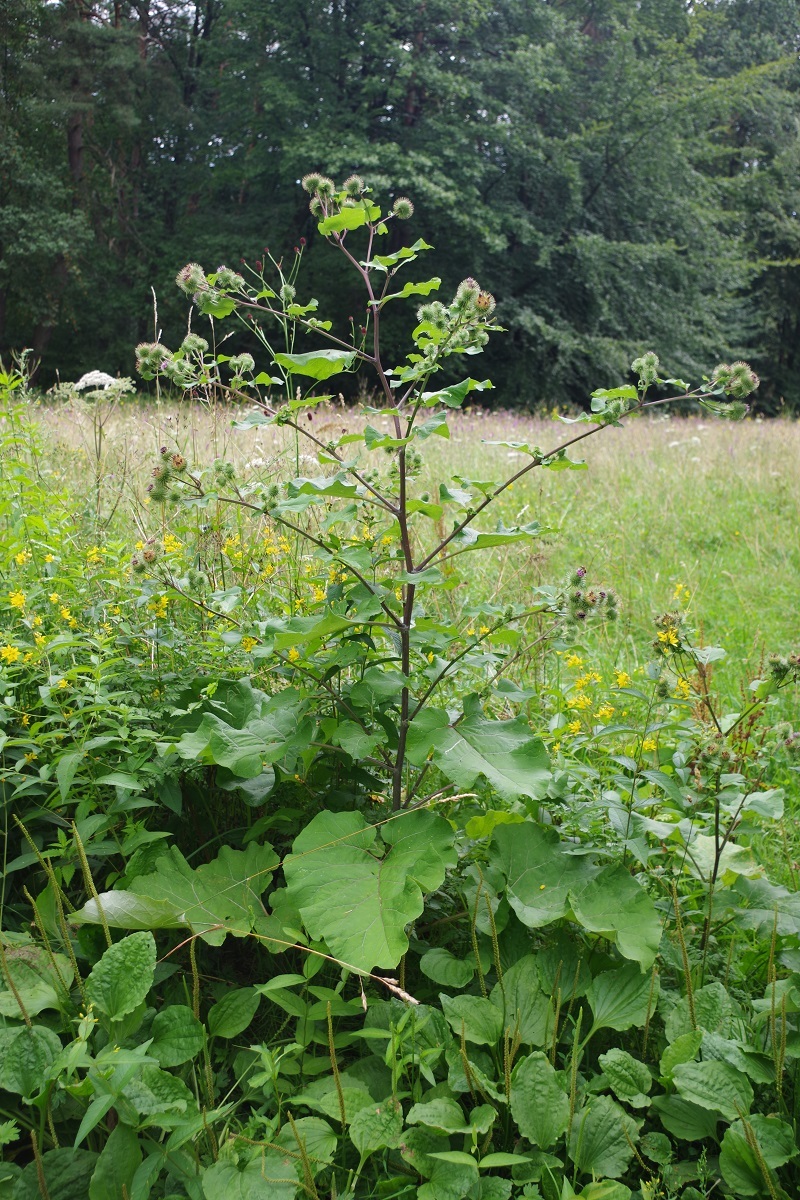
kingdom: Plantae
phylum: Tracheophyta
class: Magnoliopsida
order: Asterales
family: Asteraceae
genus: Arctium
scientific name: Arctium lappa
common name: Greater burdock
